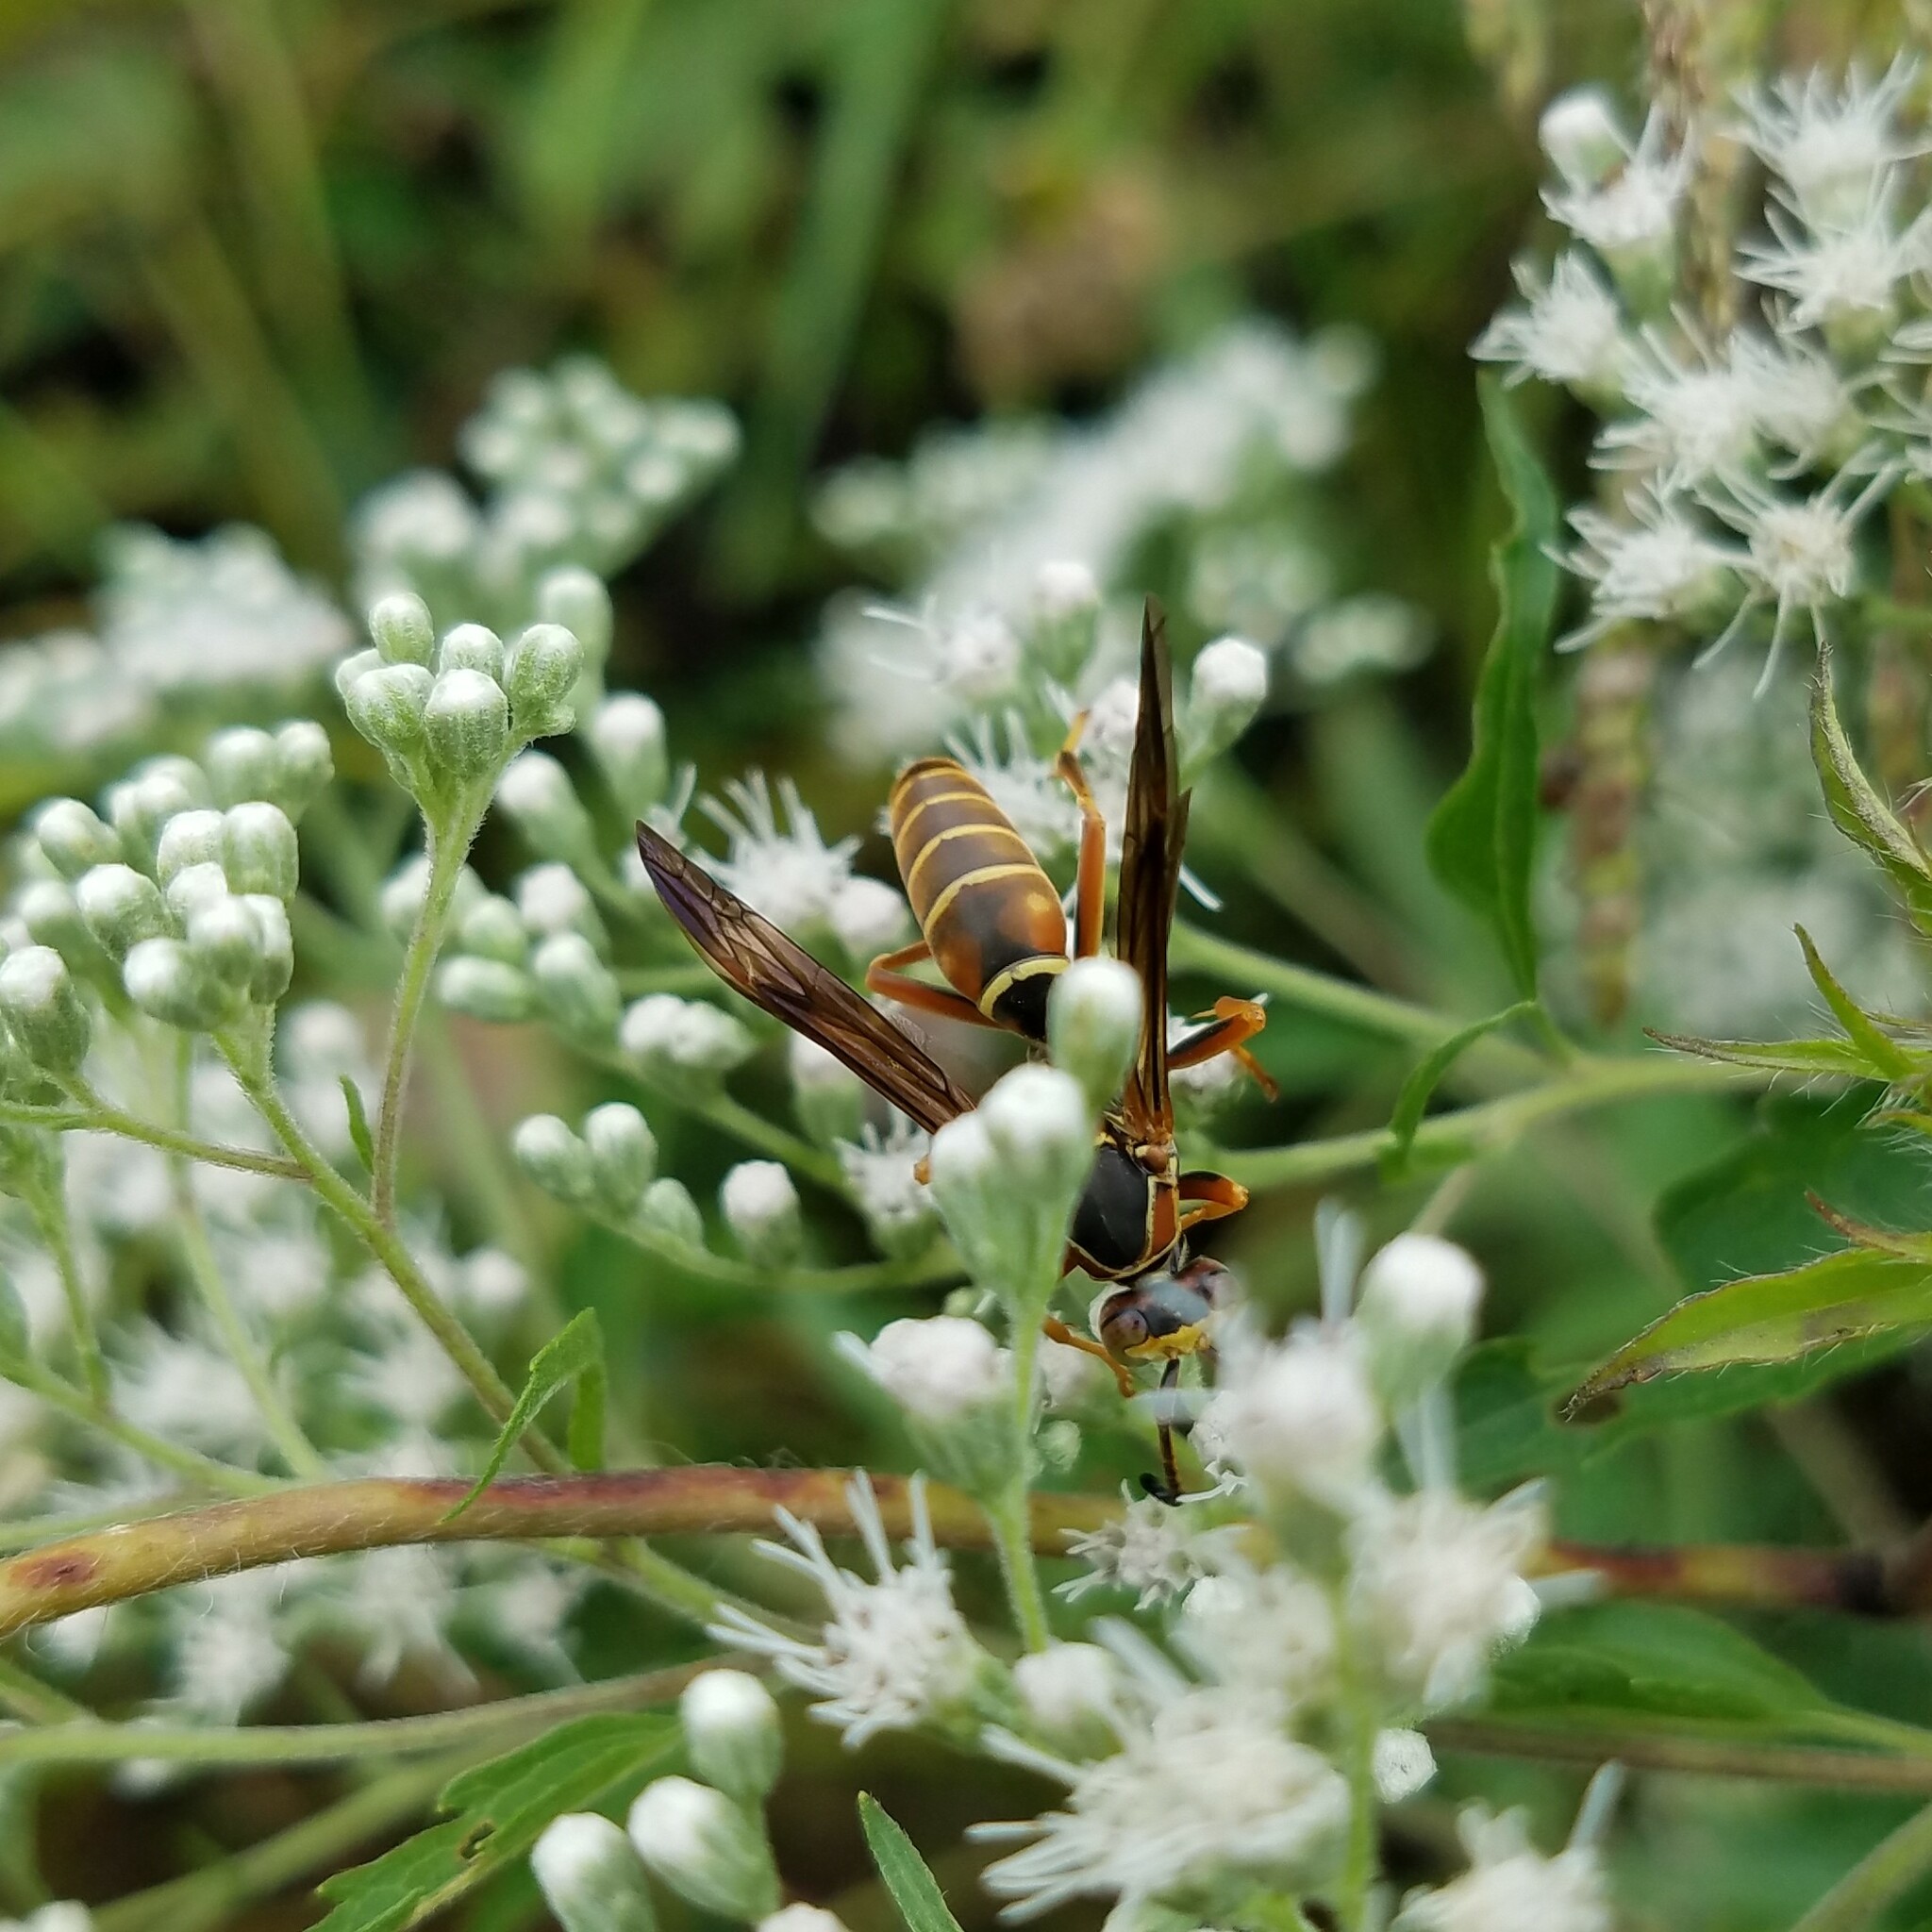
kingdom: Animalia
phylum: Arthropoda
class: Insecta
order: Hymenoptera
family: Eumenidae
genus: Polistes
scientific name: Polistes fuscatus
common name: Dark paper wasp
